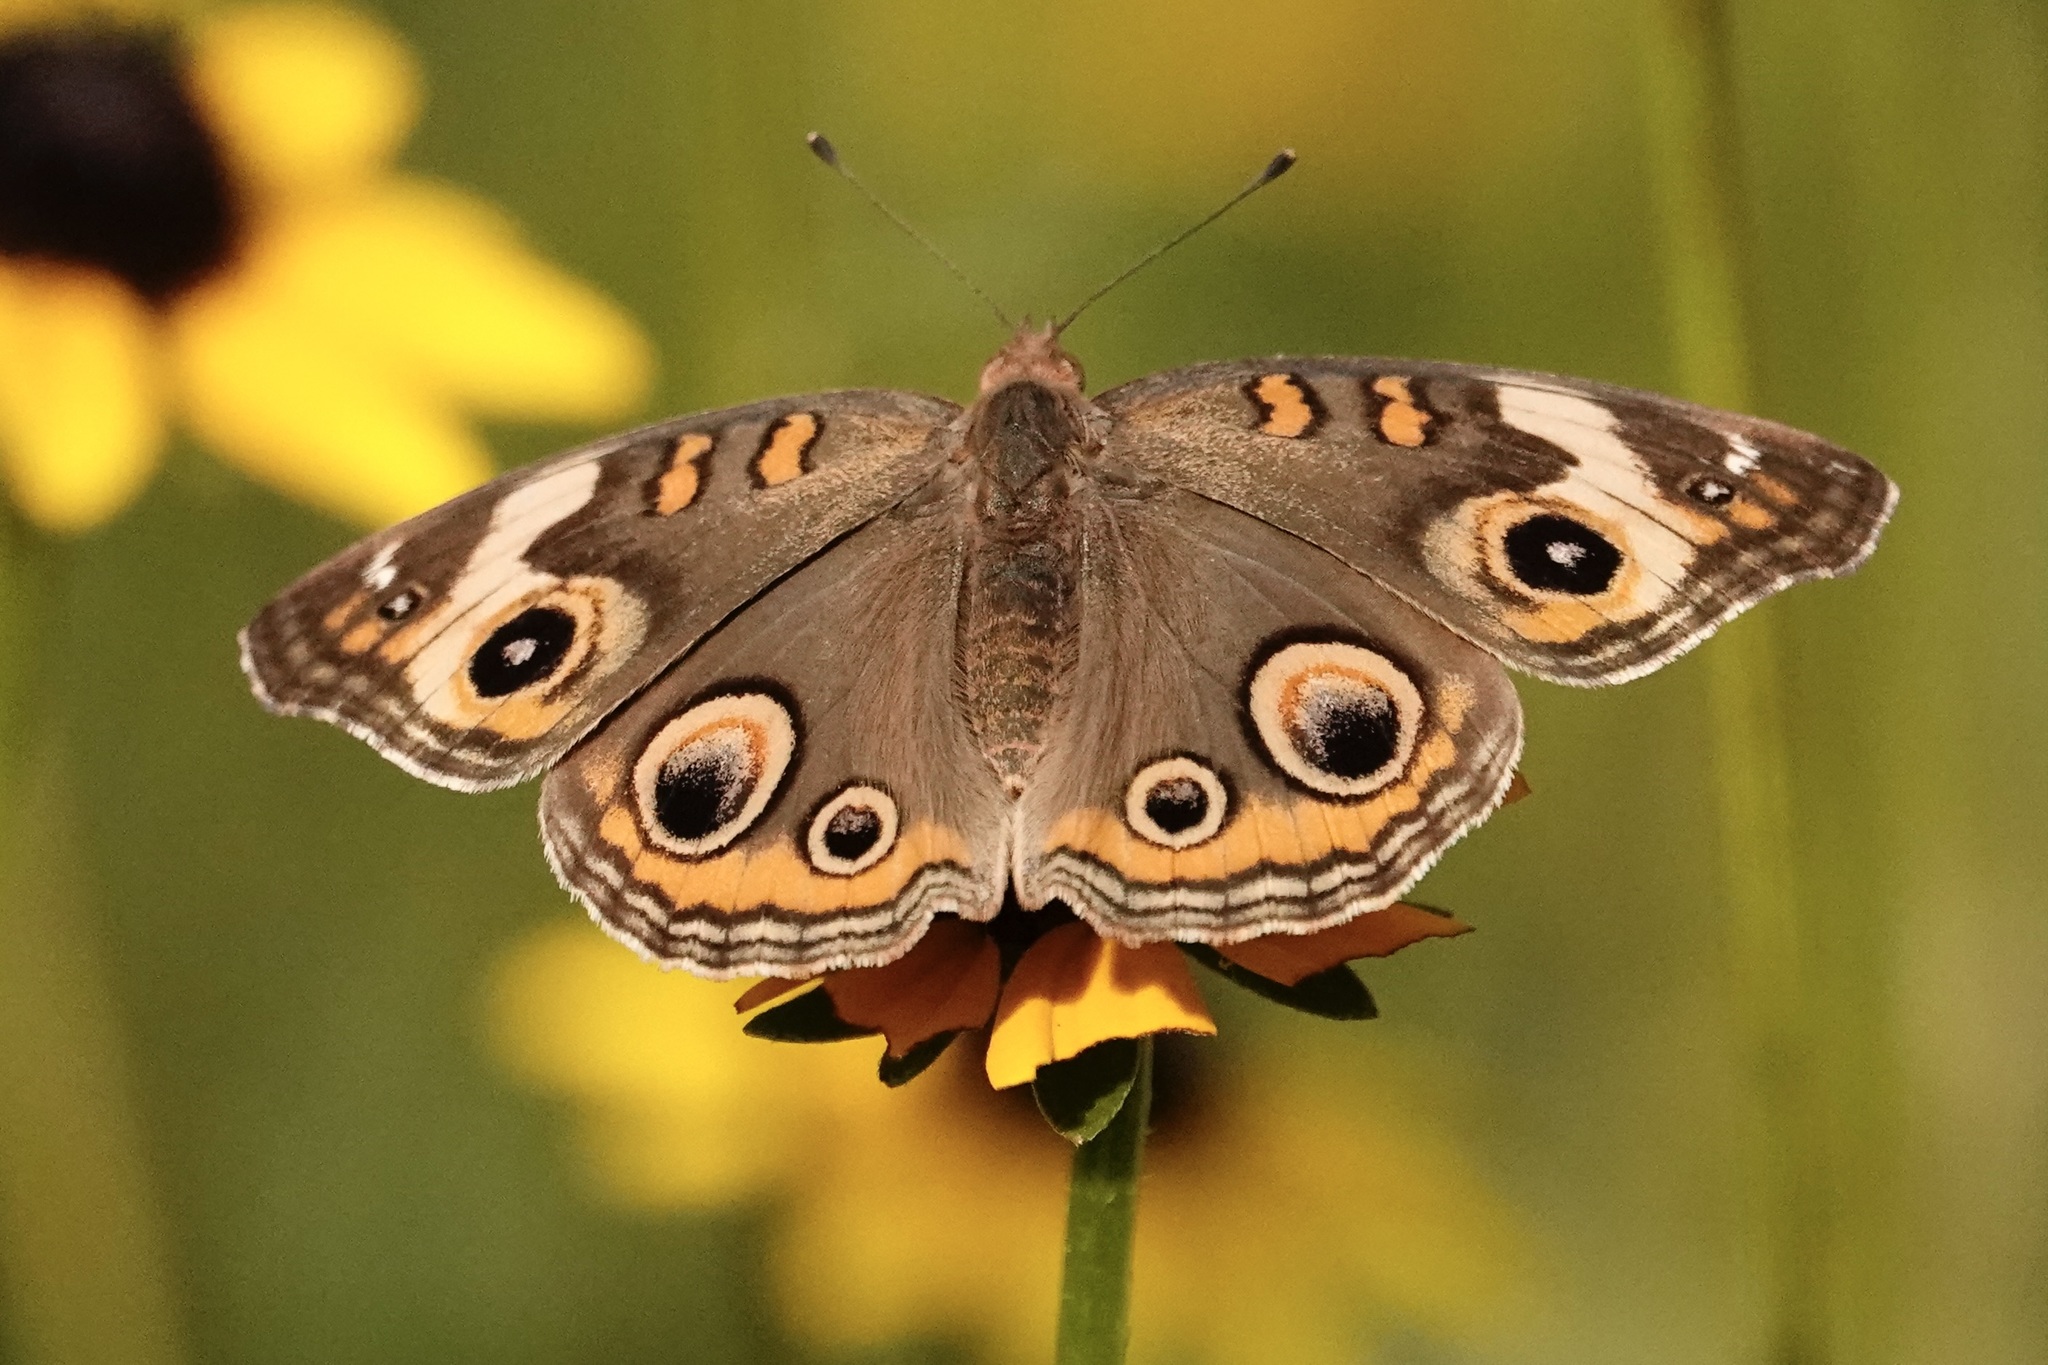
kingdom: Animalia
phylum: Arthropoda
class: Insecta
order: Lepidoptera
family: Nymphalidae
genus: Junonia
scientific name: Junonia coenia
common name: Common buckeye
